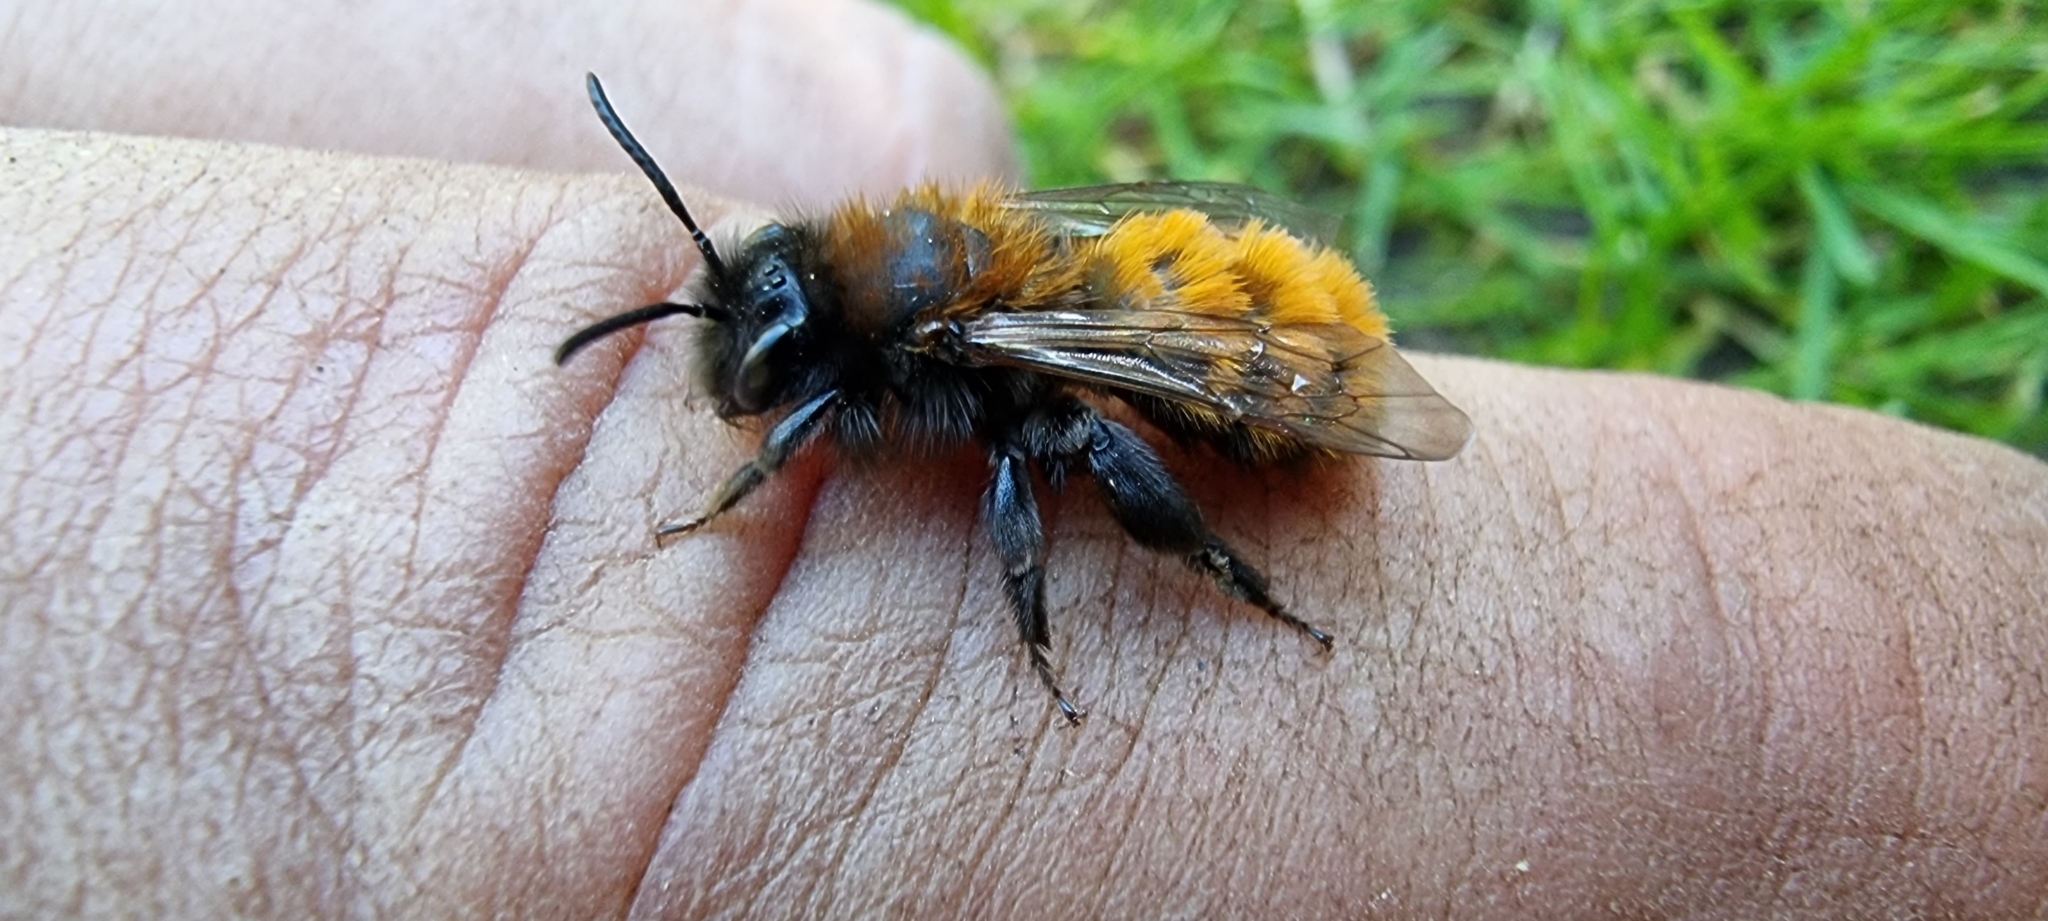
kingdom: Animalia
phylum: Arthropoda
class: Insecta
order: Hymenoptera
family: Andrenidae
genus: Andrena
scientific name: Andrena fulva
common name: Tawny mining bee
